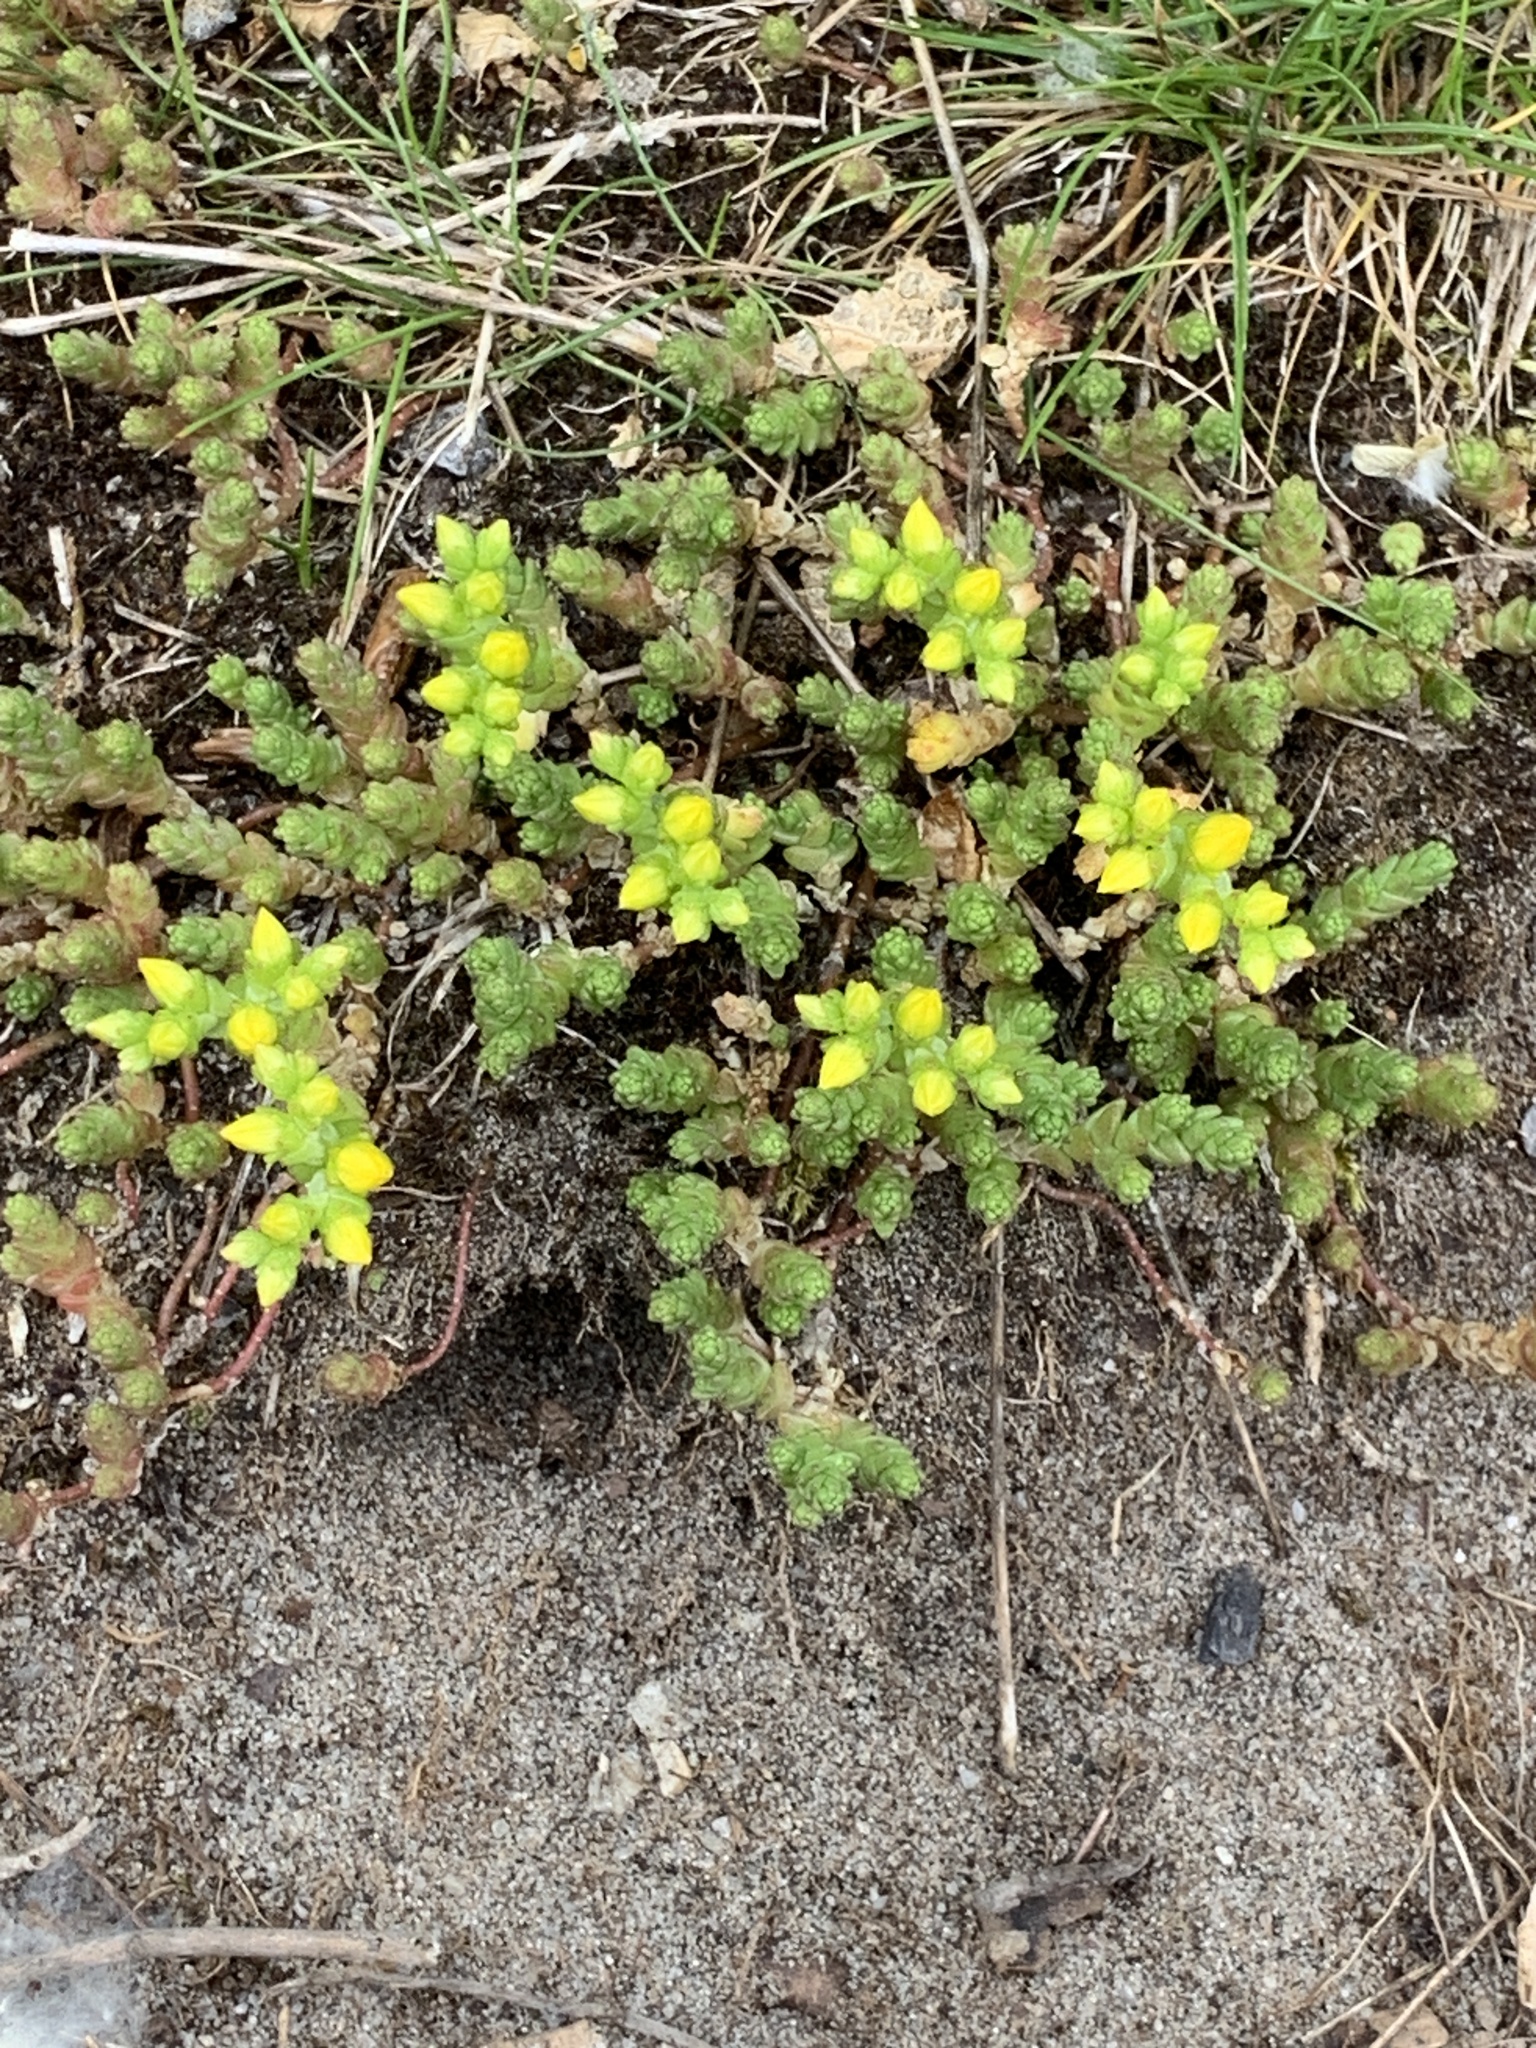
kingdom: Plantae
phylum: Tracheophyta
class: Magnoliopsida
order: Saxifragales
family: Crassulaceae
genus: Sedum
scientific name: Sedum acre
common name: Biting stonecrop
